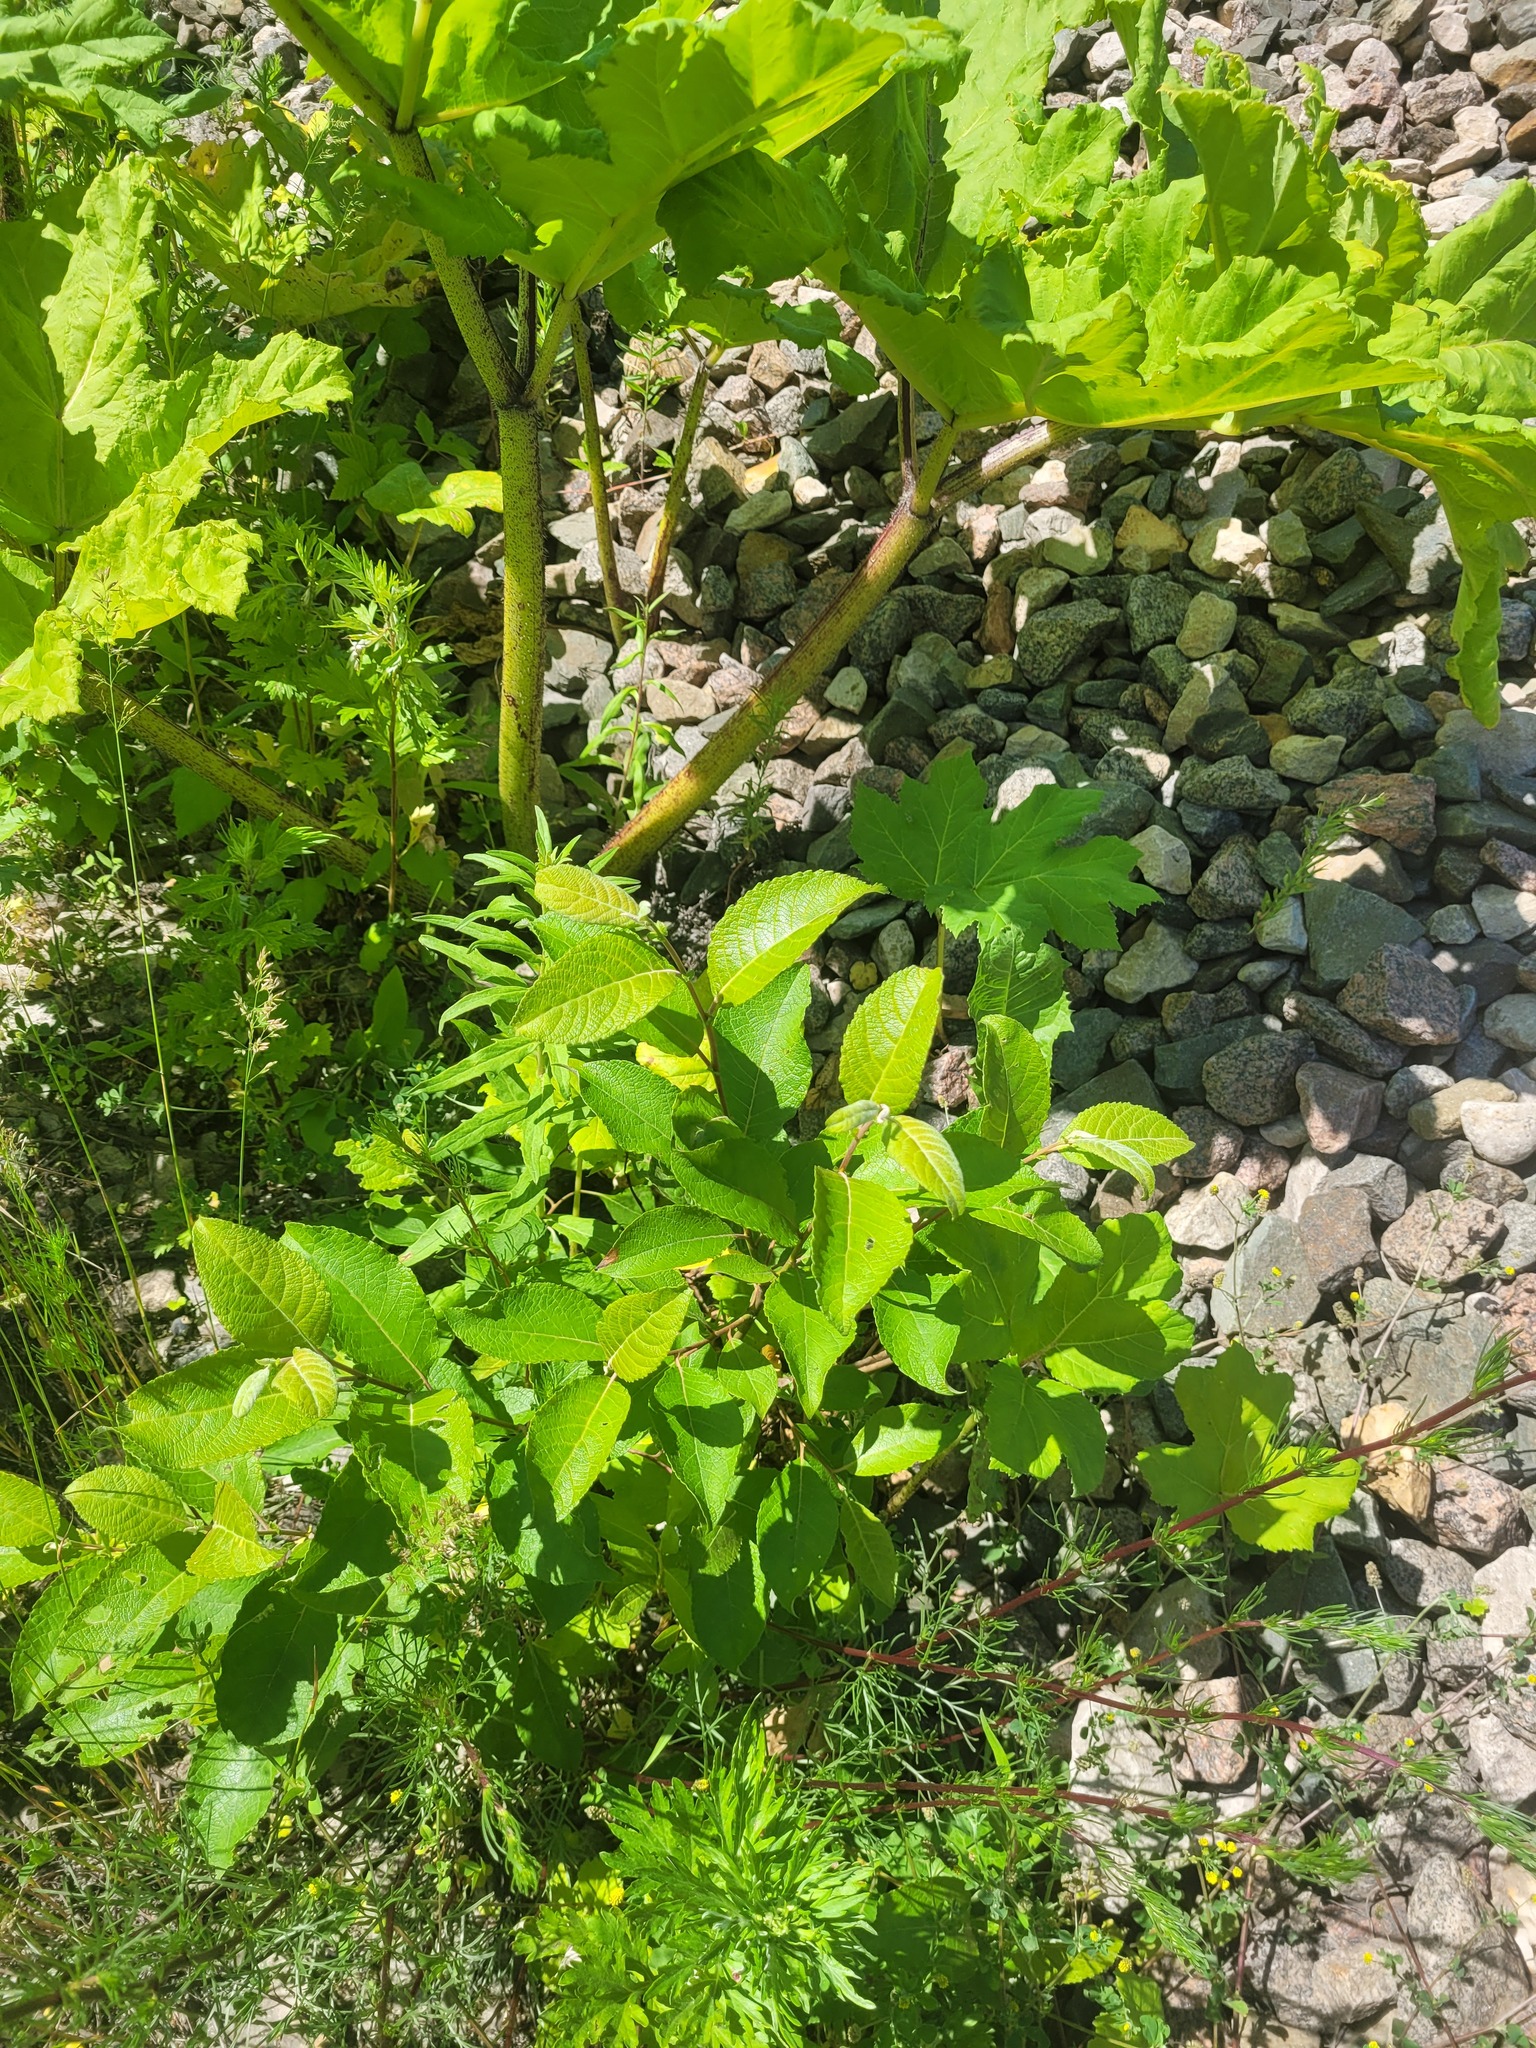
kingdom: Plantae
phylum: Tracheophyta
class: Magnoliopsida
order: Malpighiales
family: Salicaceae
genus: Salix
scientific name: Salix caprea
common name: Goat willow
